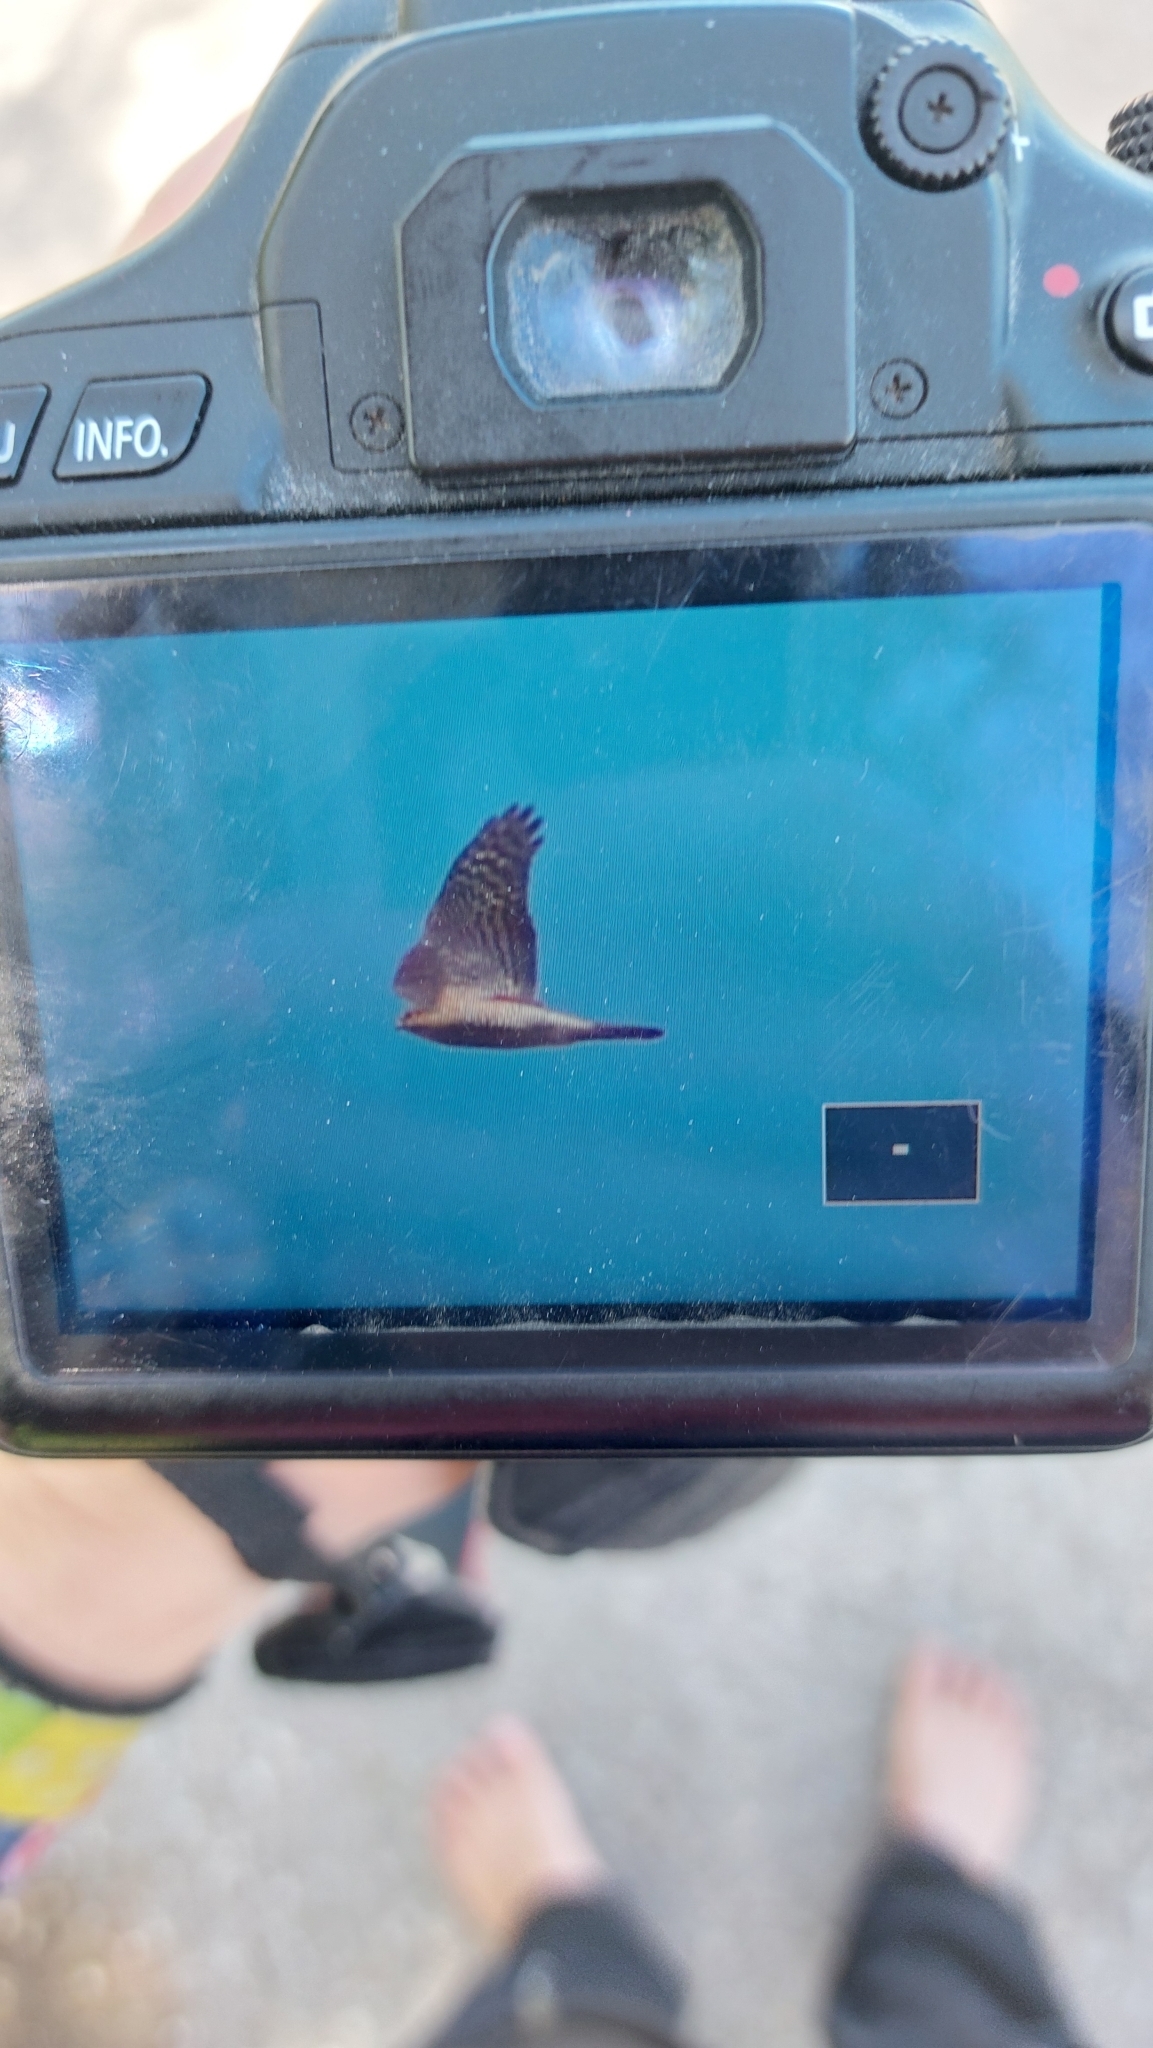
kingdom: Animalia
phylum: Chordata
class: Aves
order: Accipitriformes
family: Accipitridae
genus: Accipiter
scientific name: Accipiter nisus
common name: Eurasian sparrowhawk
